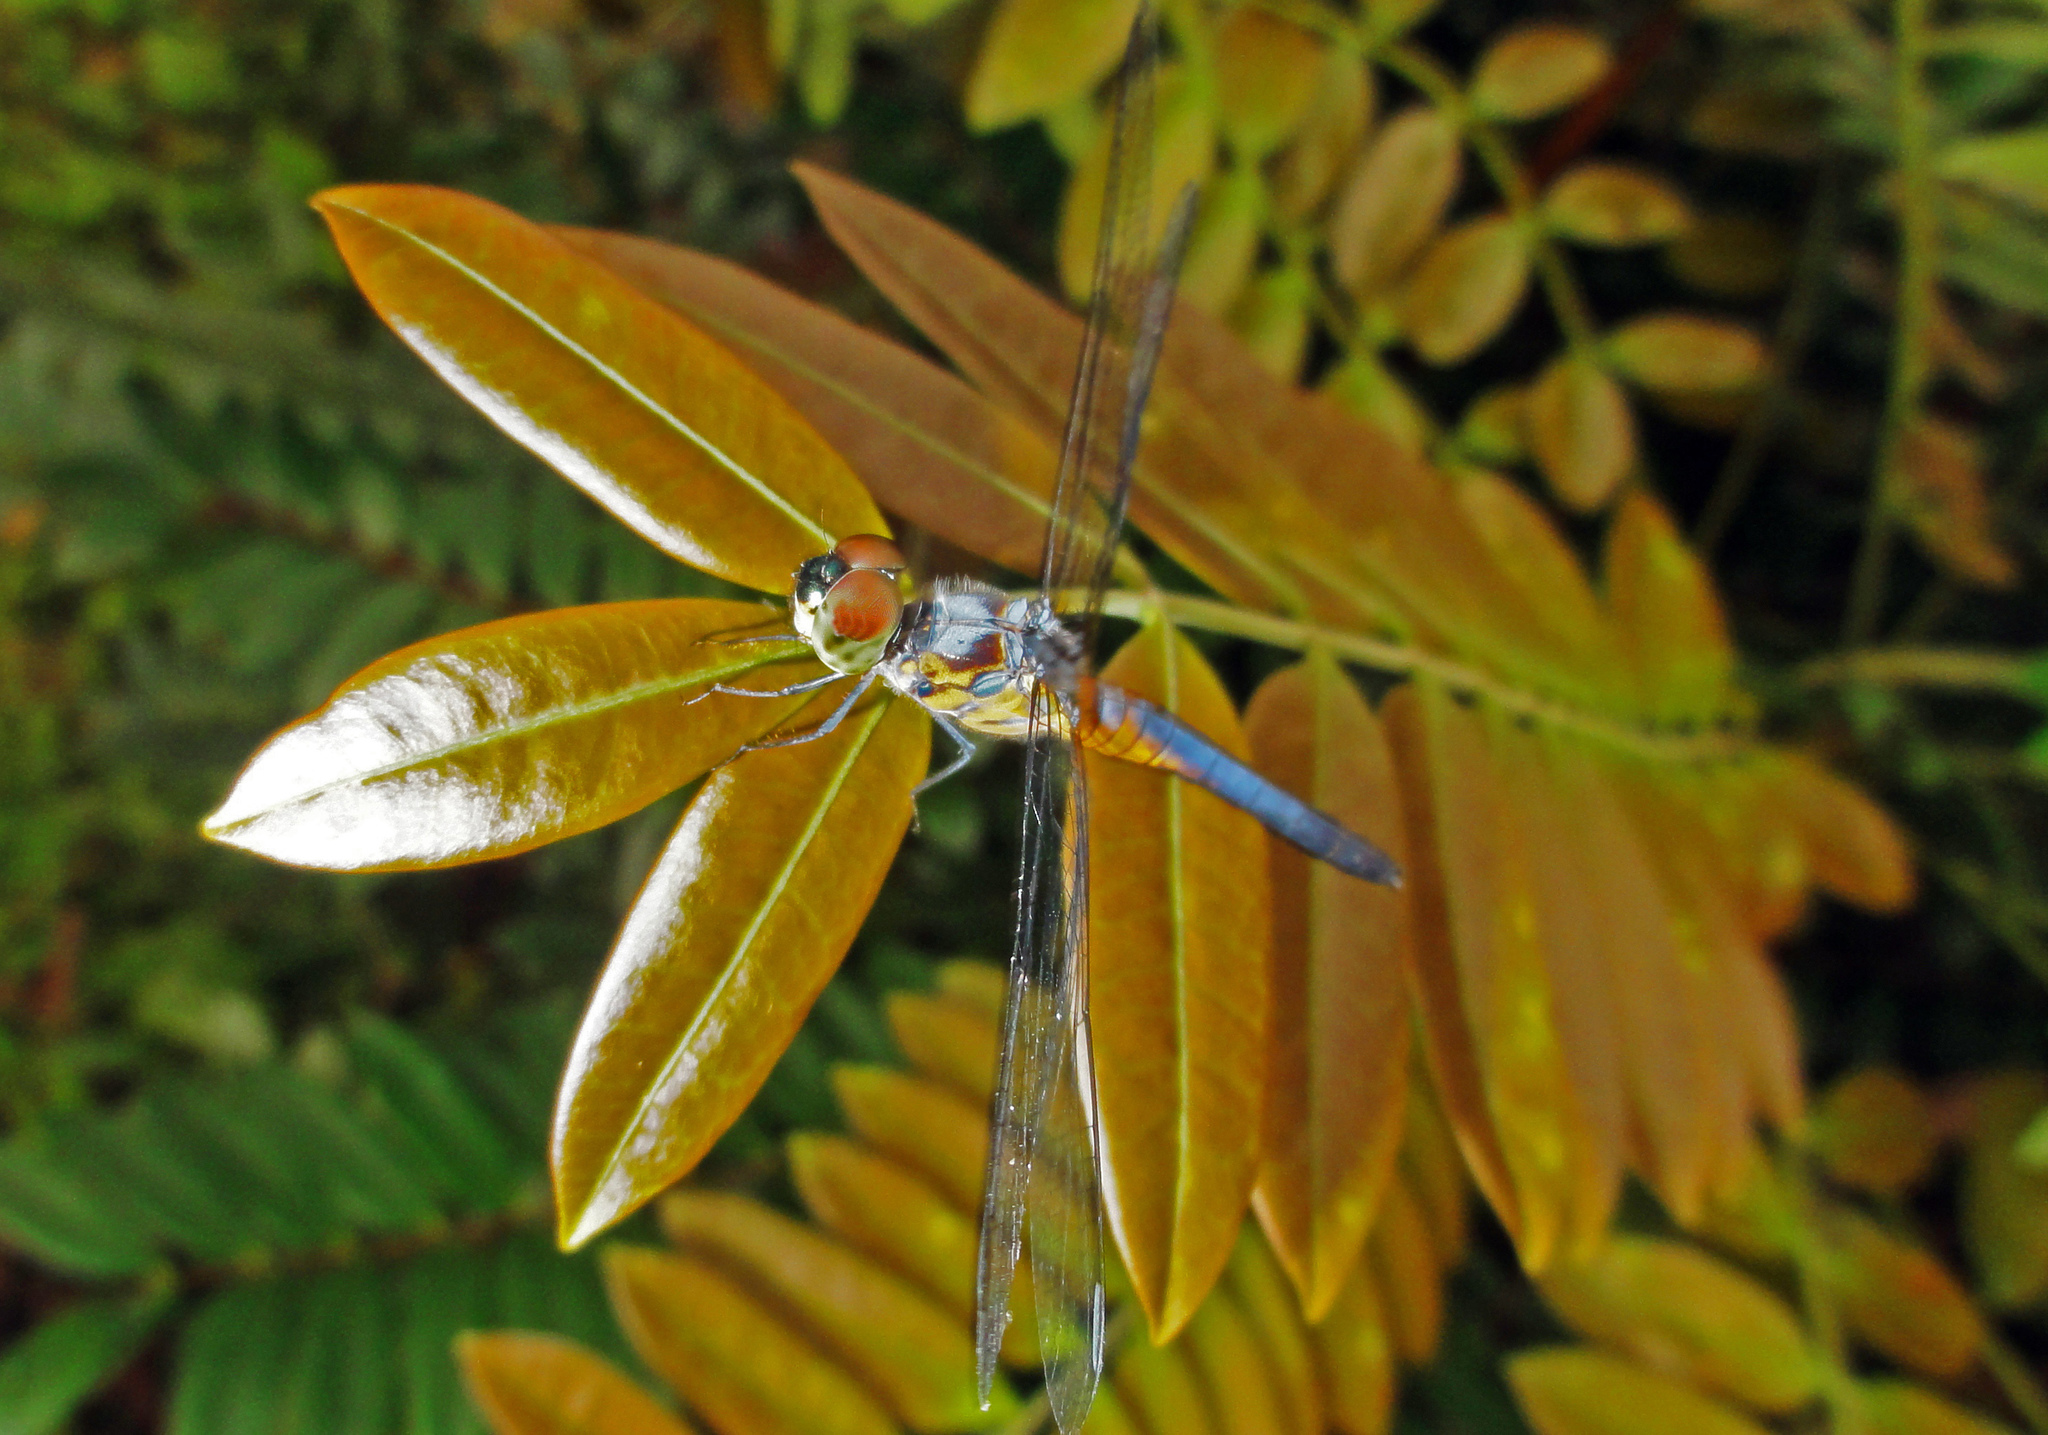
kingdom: Animalia
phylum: Arthropoda
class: Insecta
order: Odonata
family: Libellulidae
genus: Brachydiplax
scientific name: Brachydiplax chalybea
